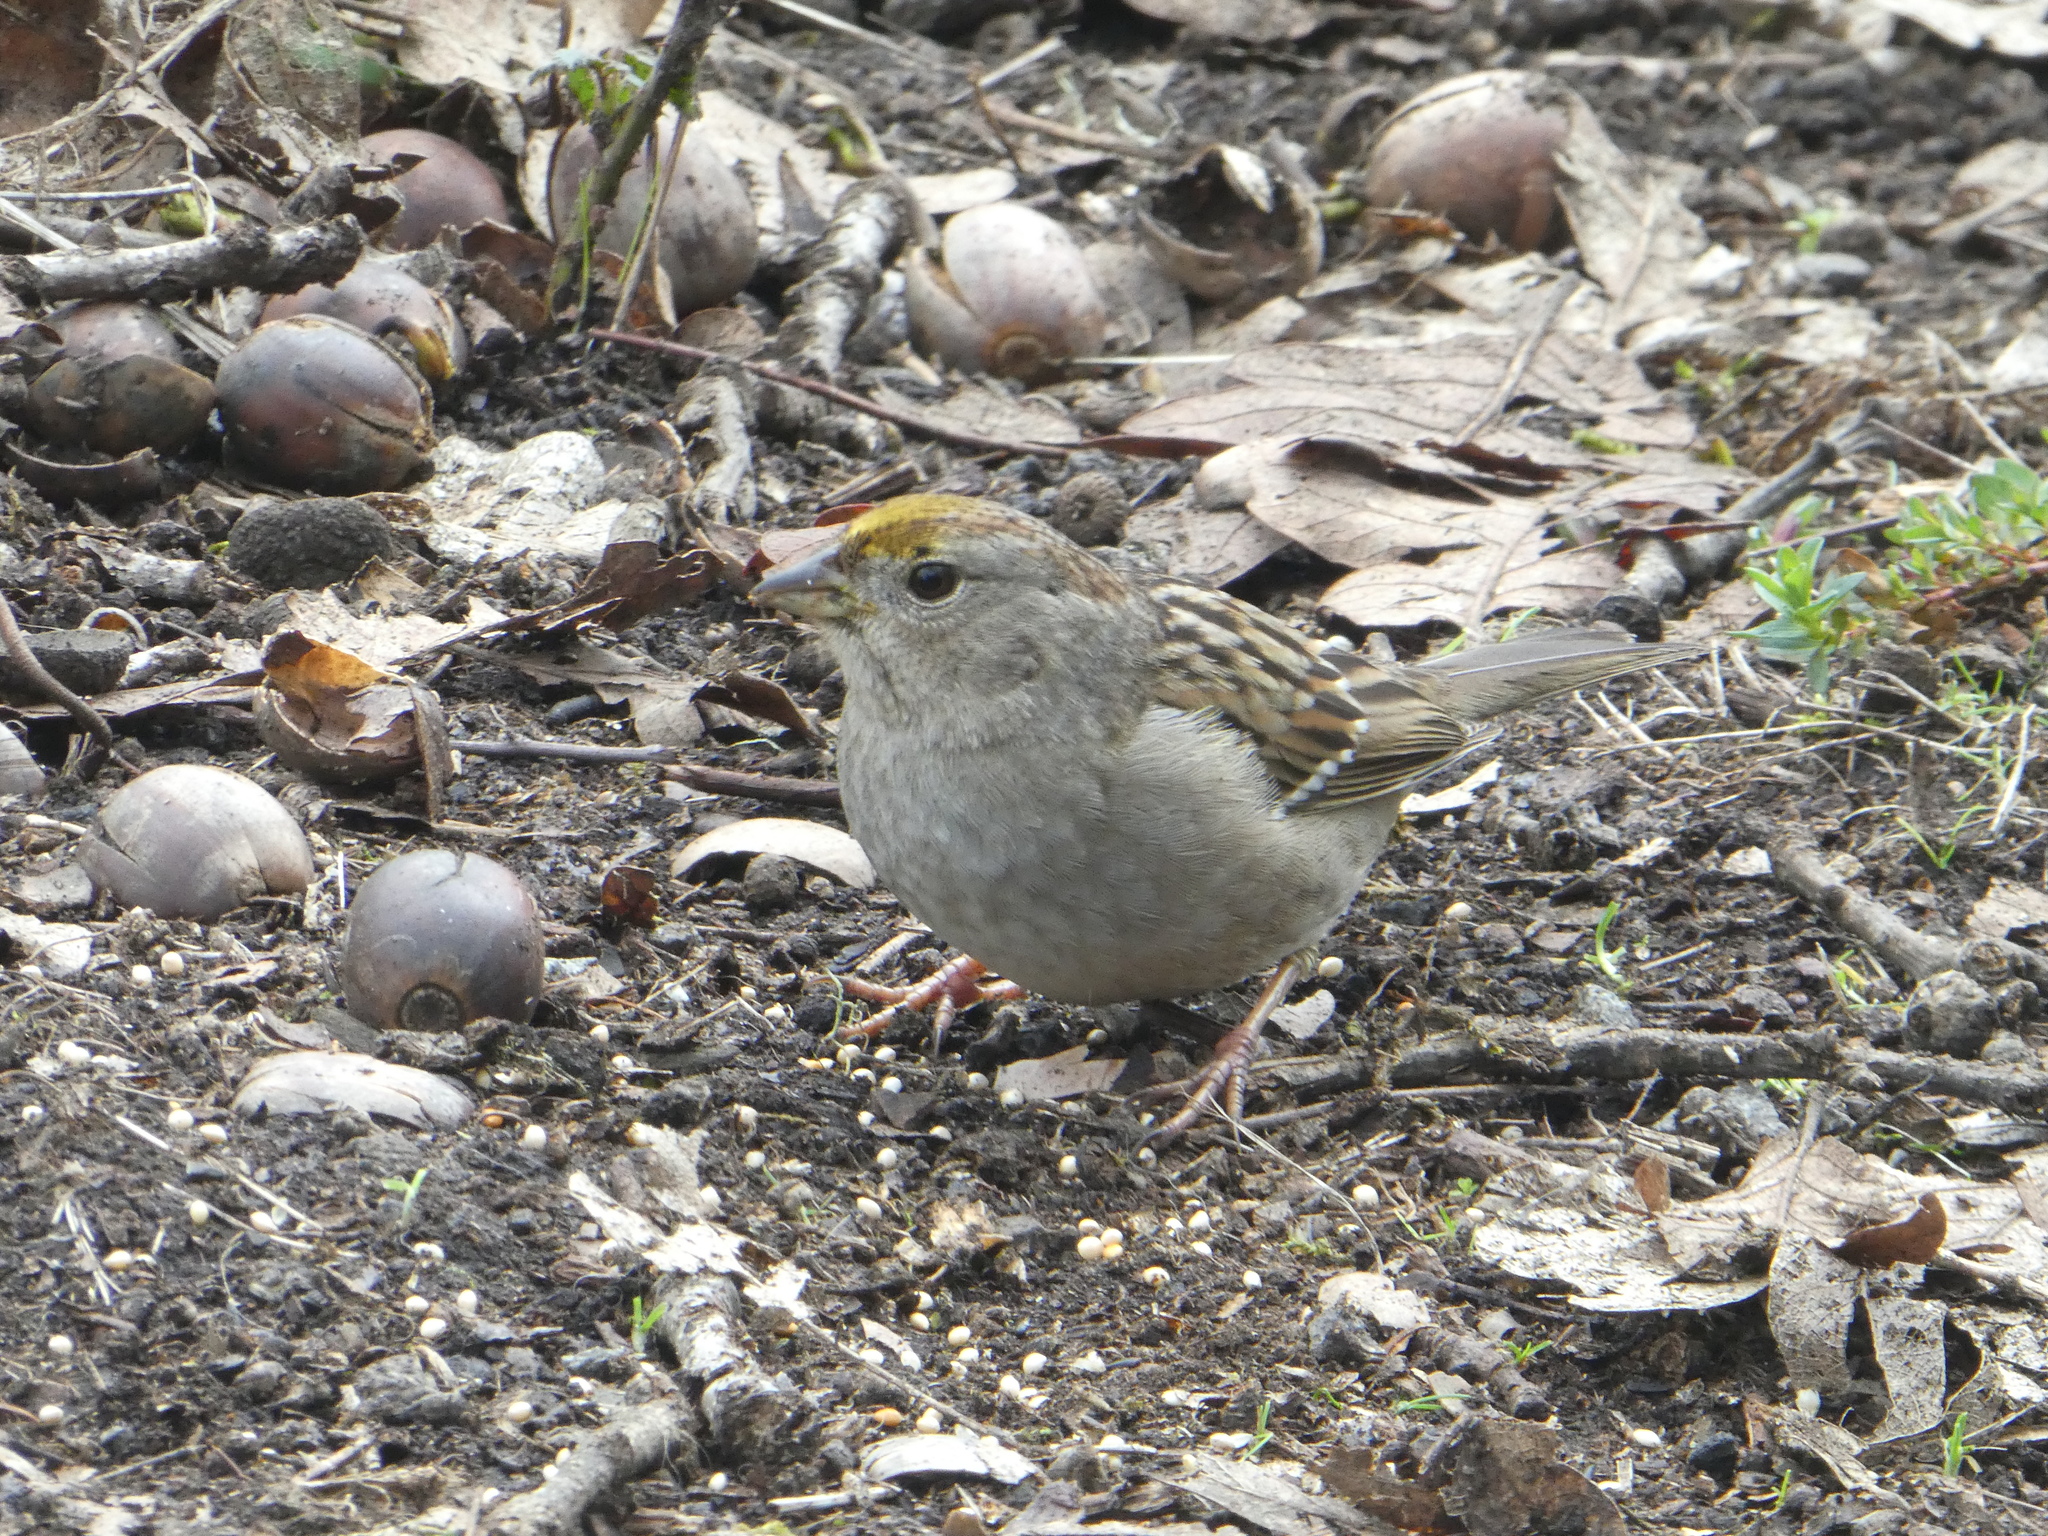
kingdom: Animalia
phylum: Chordata
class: Aves
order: Passeriformes
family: Passerellidae
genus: Zonotrichia
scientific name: Zonotrichia atricapilla
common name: Golden-crowned sparrow
